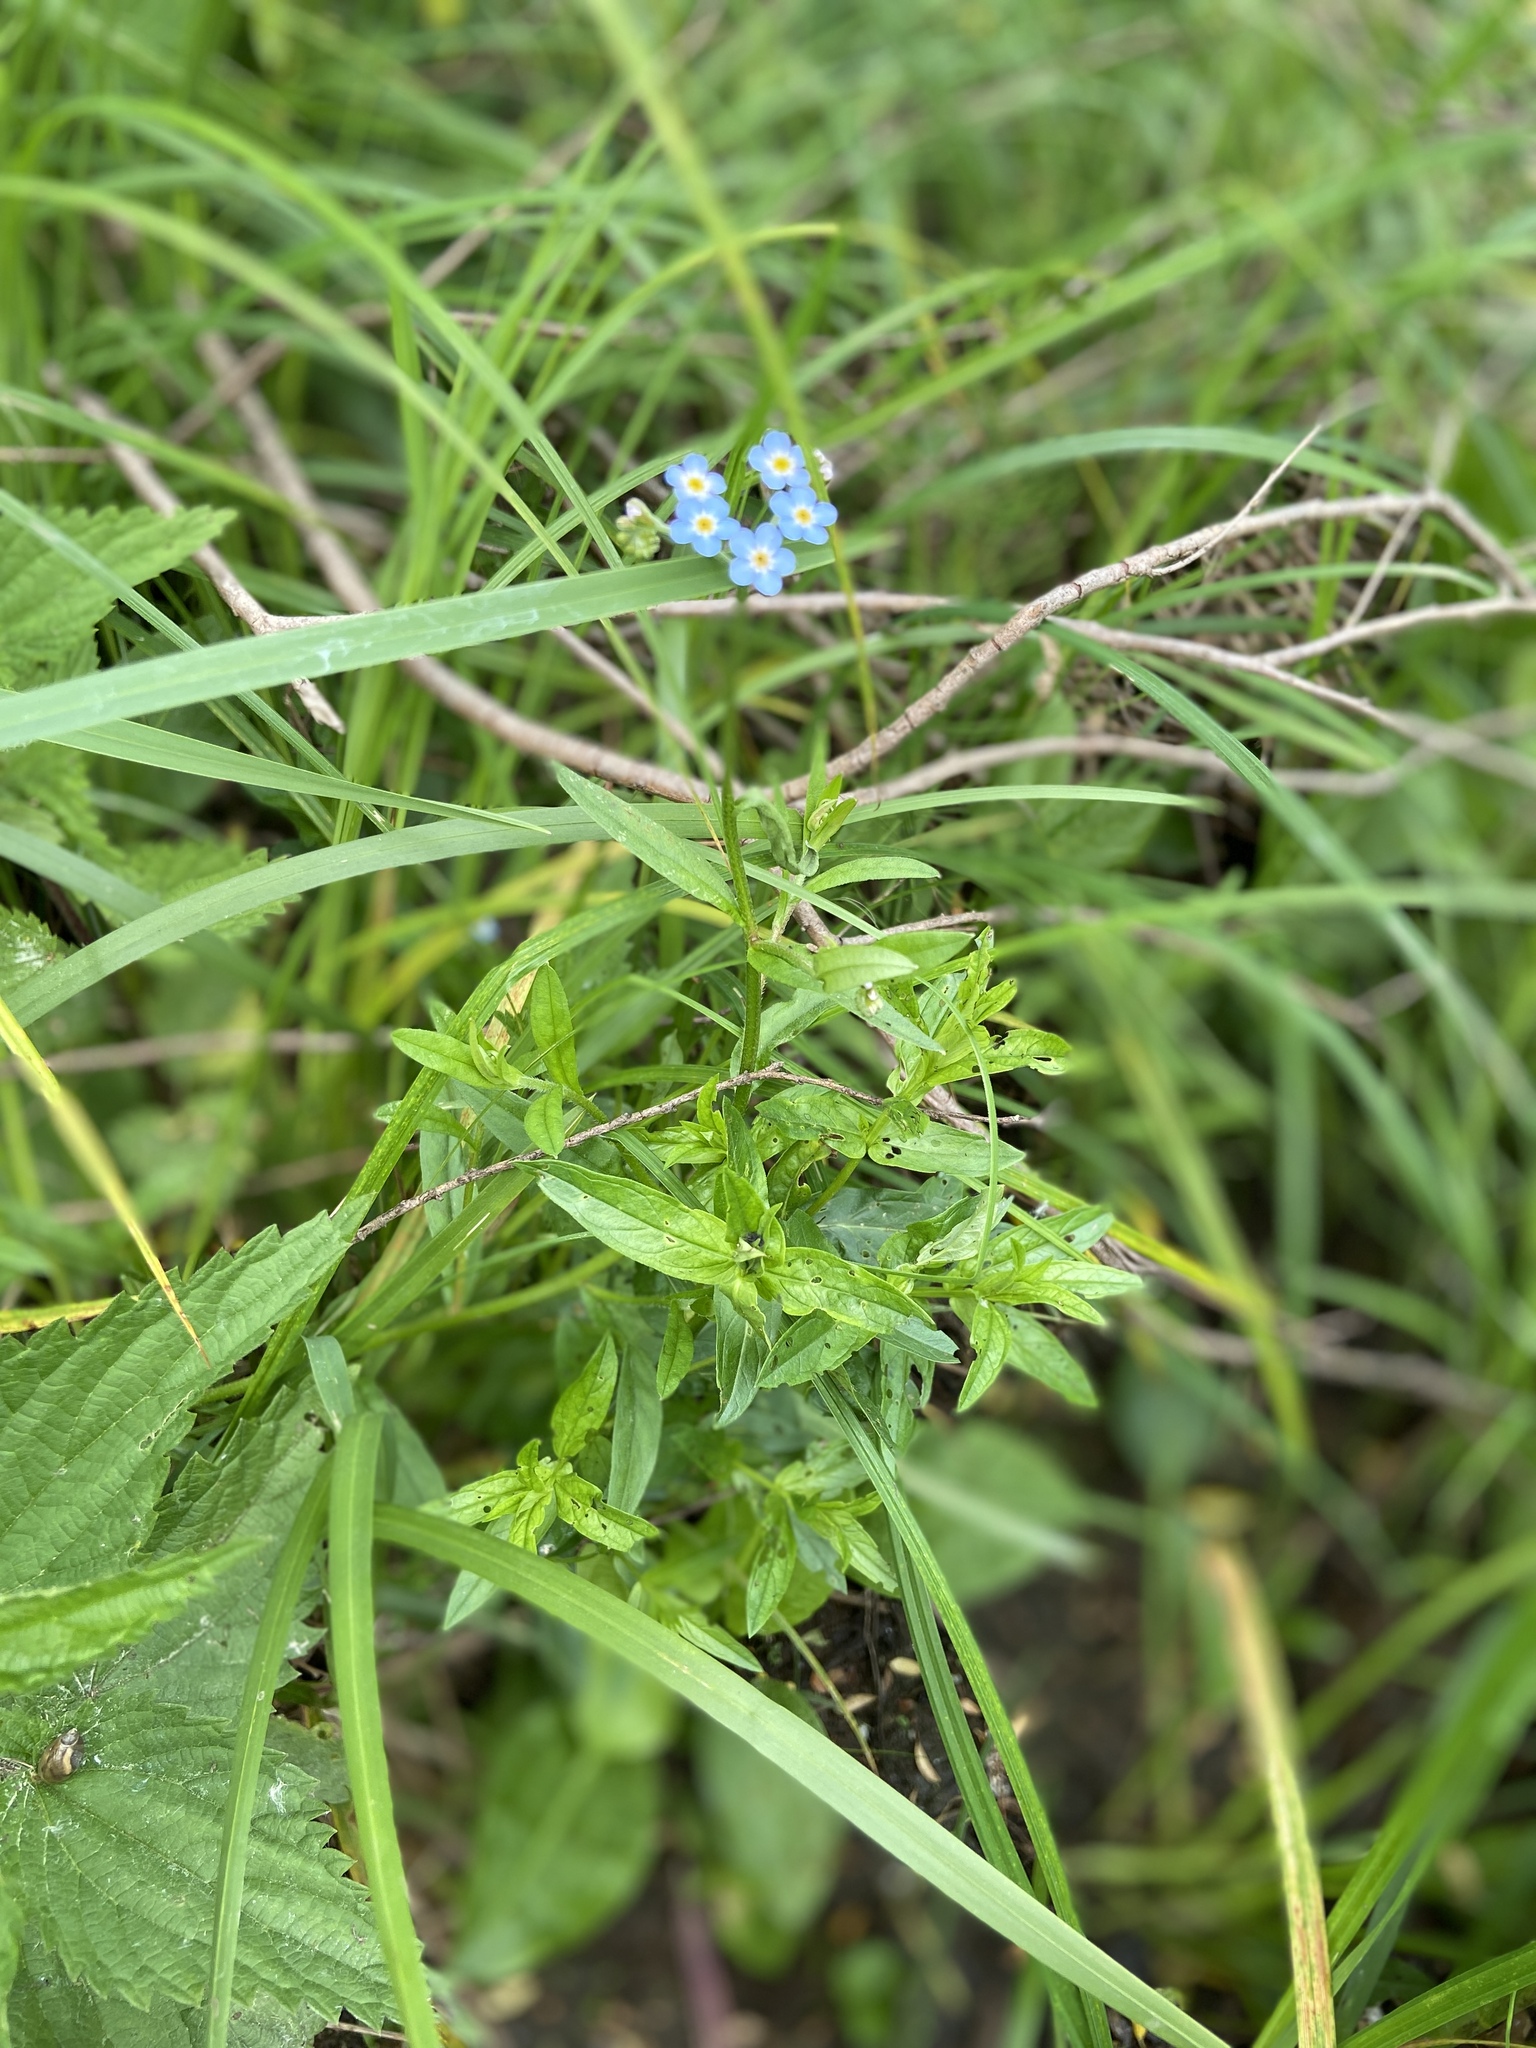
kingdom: Plantae
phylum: Tracheophyta
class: Magnoliopsida
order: Boraginales
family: Boraginaceae
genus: Myosotis
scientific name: Myosotis scorpioides
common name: Water forget-me-not
